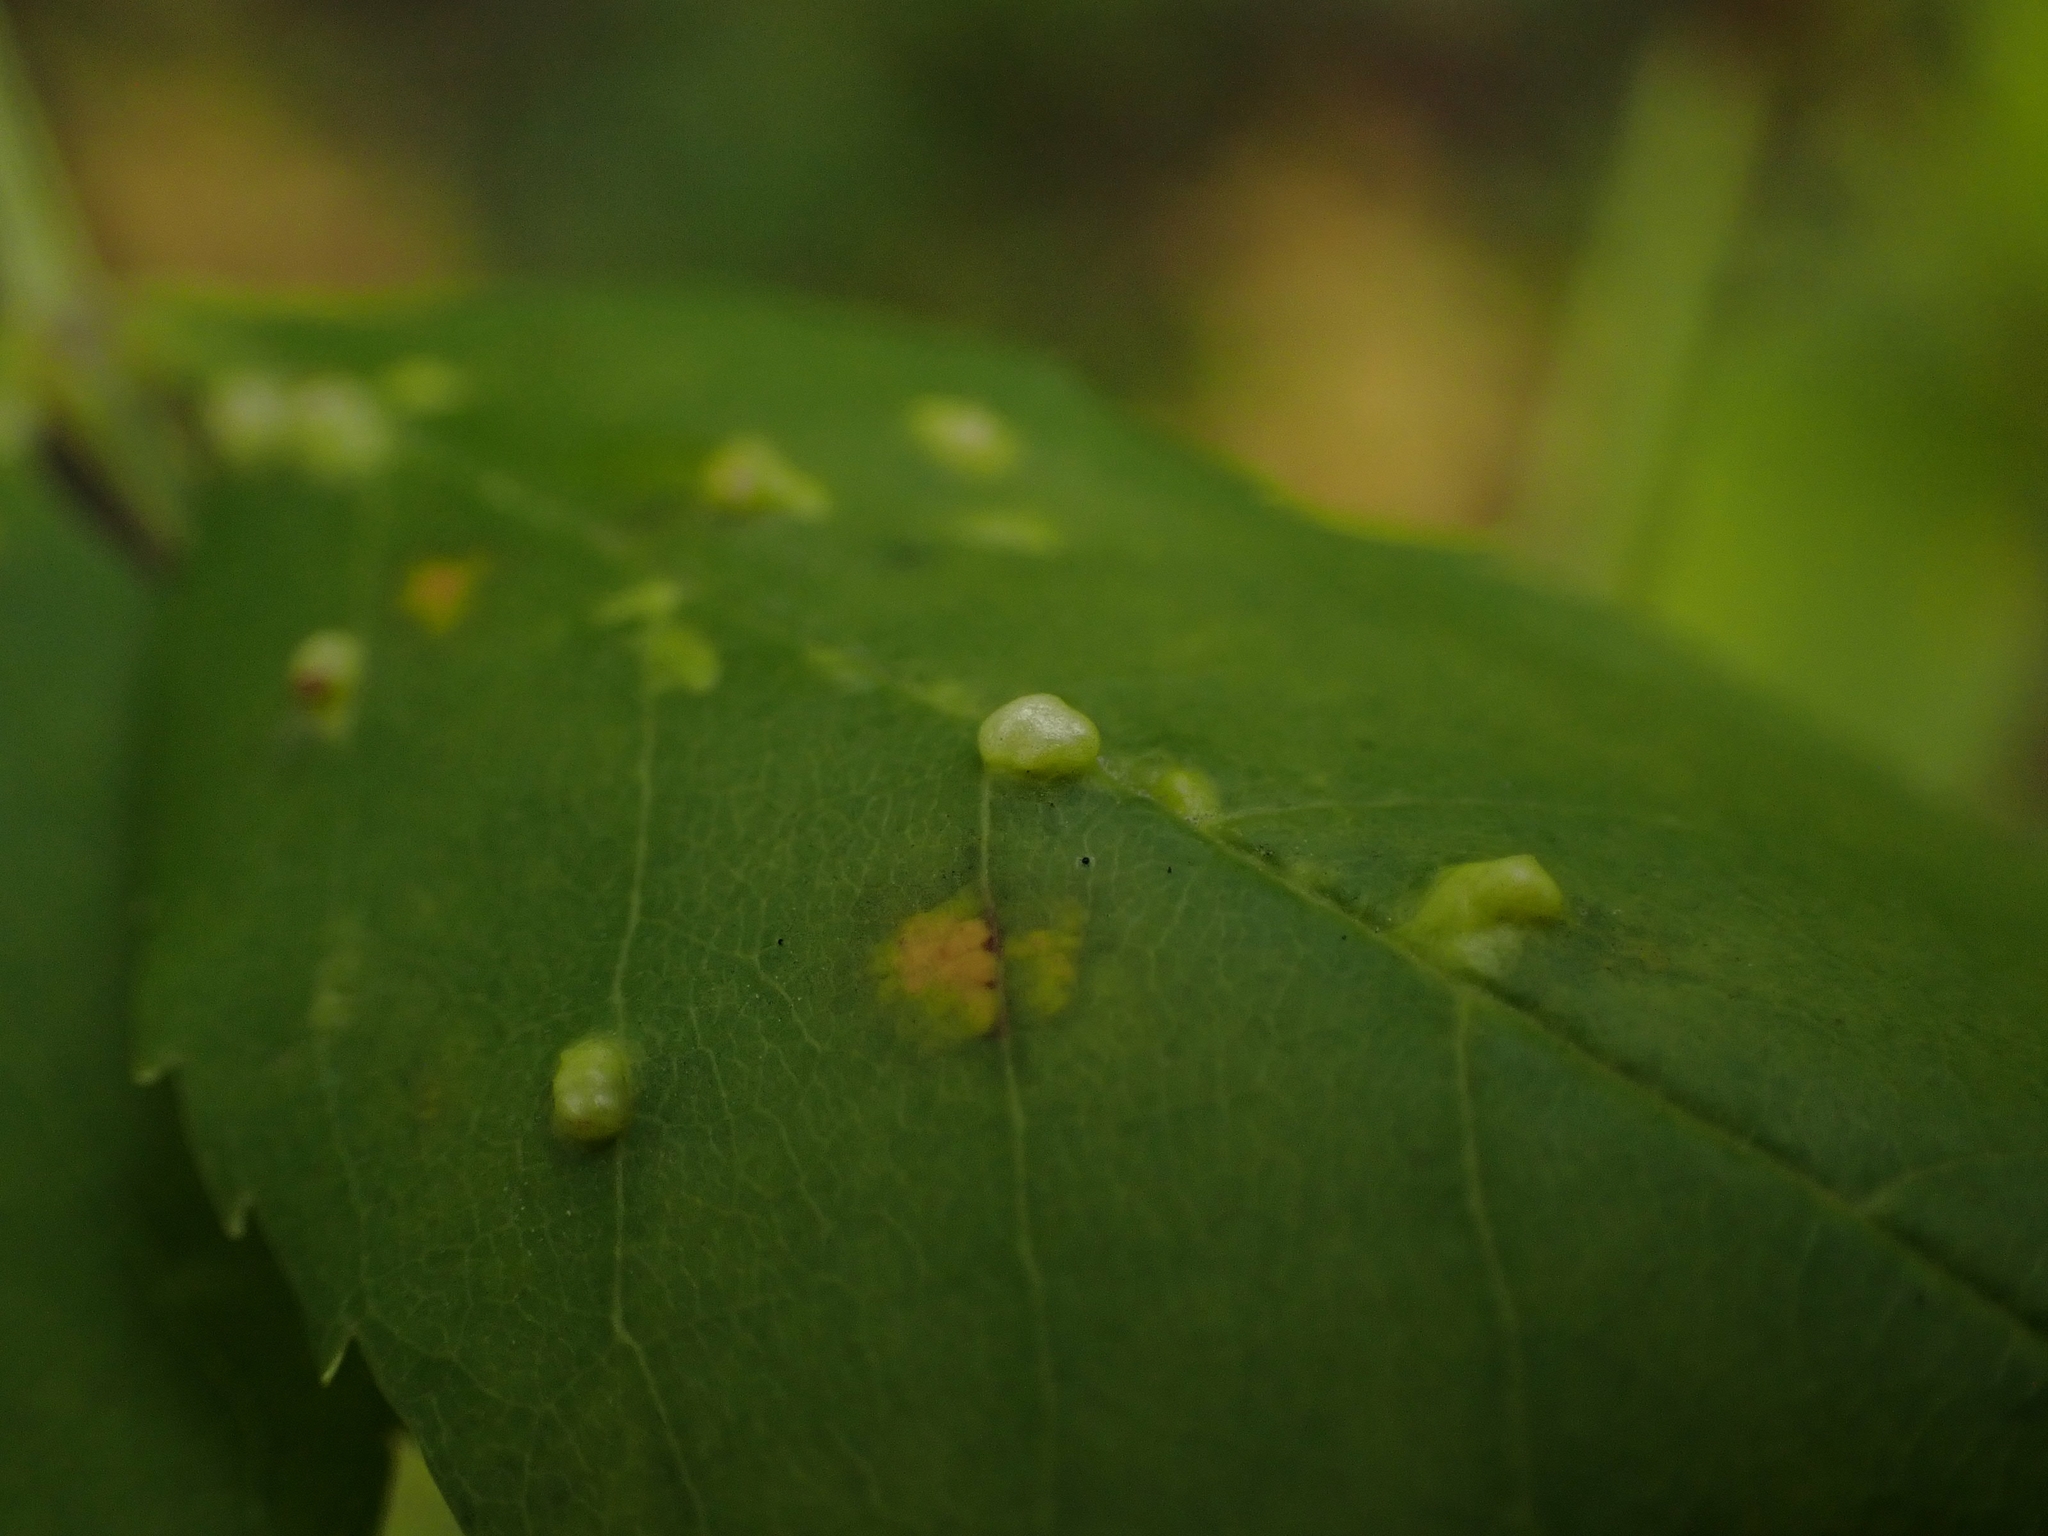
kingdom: Animalia
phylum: Arthropoda
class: Arachnida
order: Trombidiformes
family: Eriophyidae
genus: Aceria
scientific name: Aceria fraxinicola
